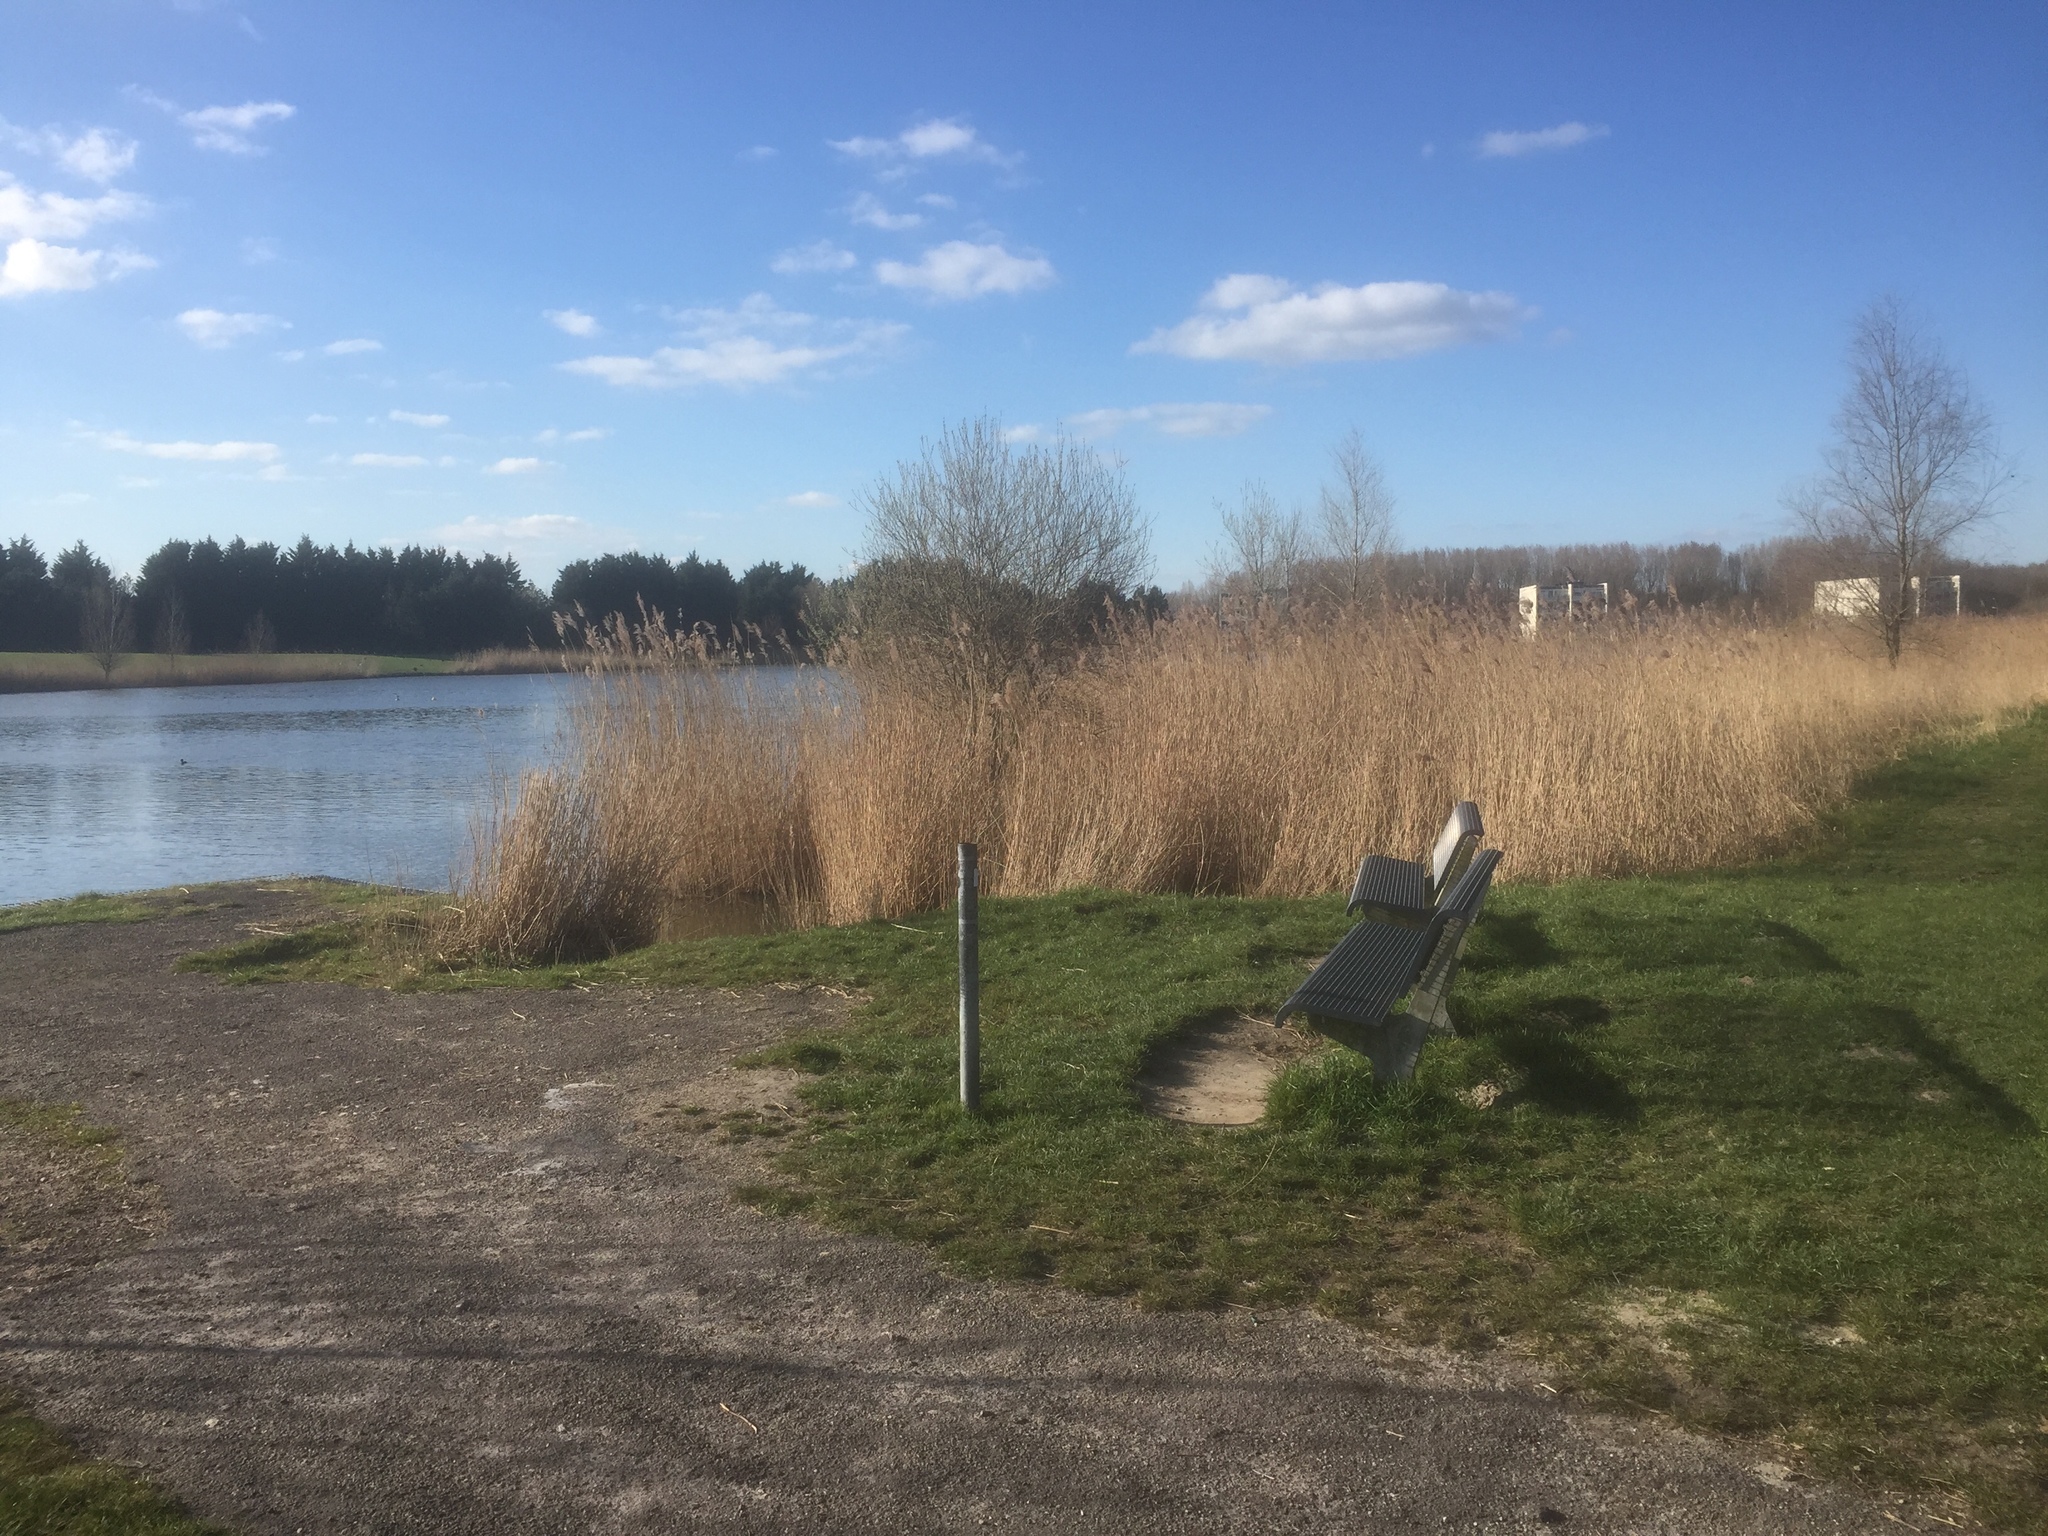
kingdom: Plantae
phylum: Tracheophyta
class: Liliopsida
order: Poales
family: Poaceae
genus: Phragmites
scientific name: Phragmites australis
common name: Common reed
